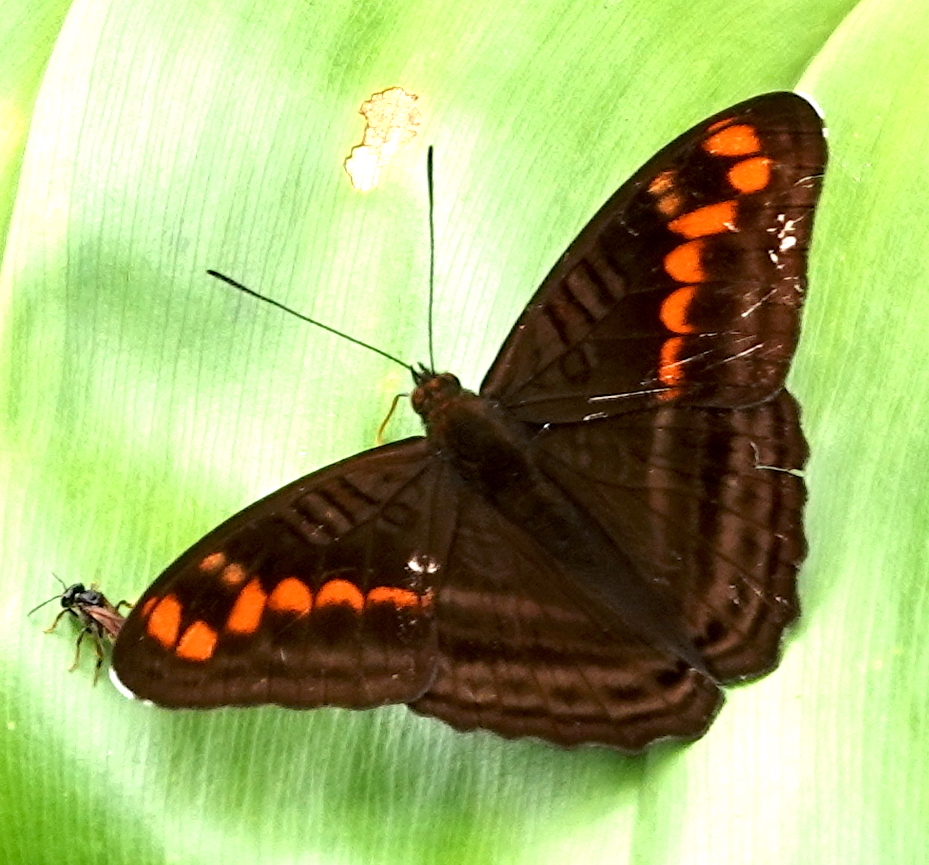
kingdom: Animalia
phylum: Arthropoda
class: Insecta
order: Lepidoptera
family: Nymphalidae
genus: Limenitis
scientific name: Limenitis levona
